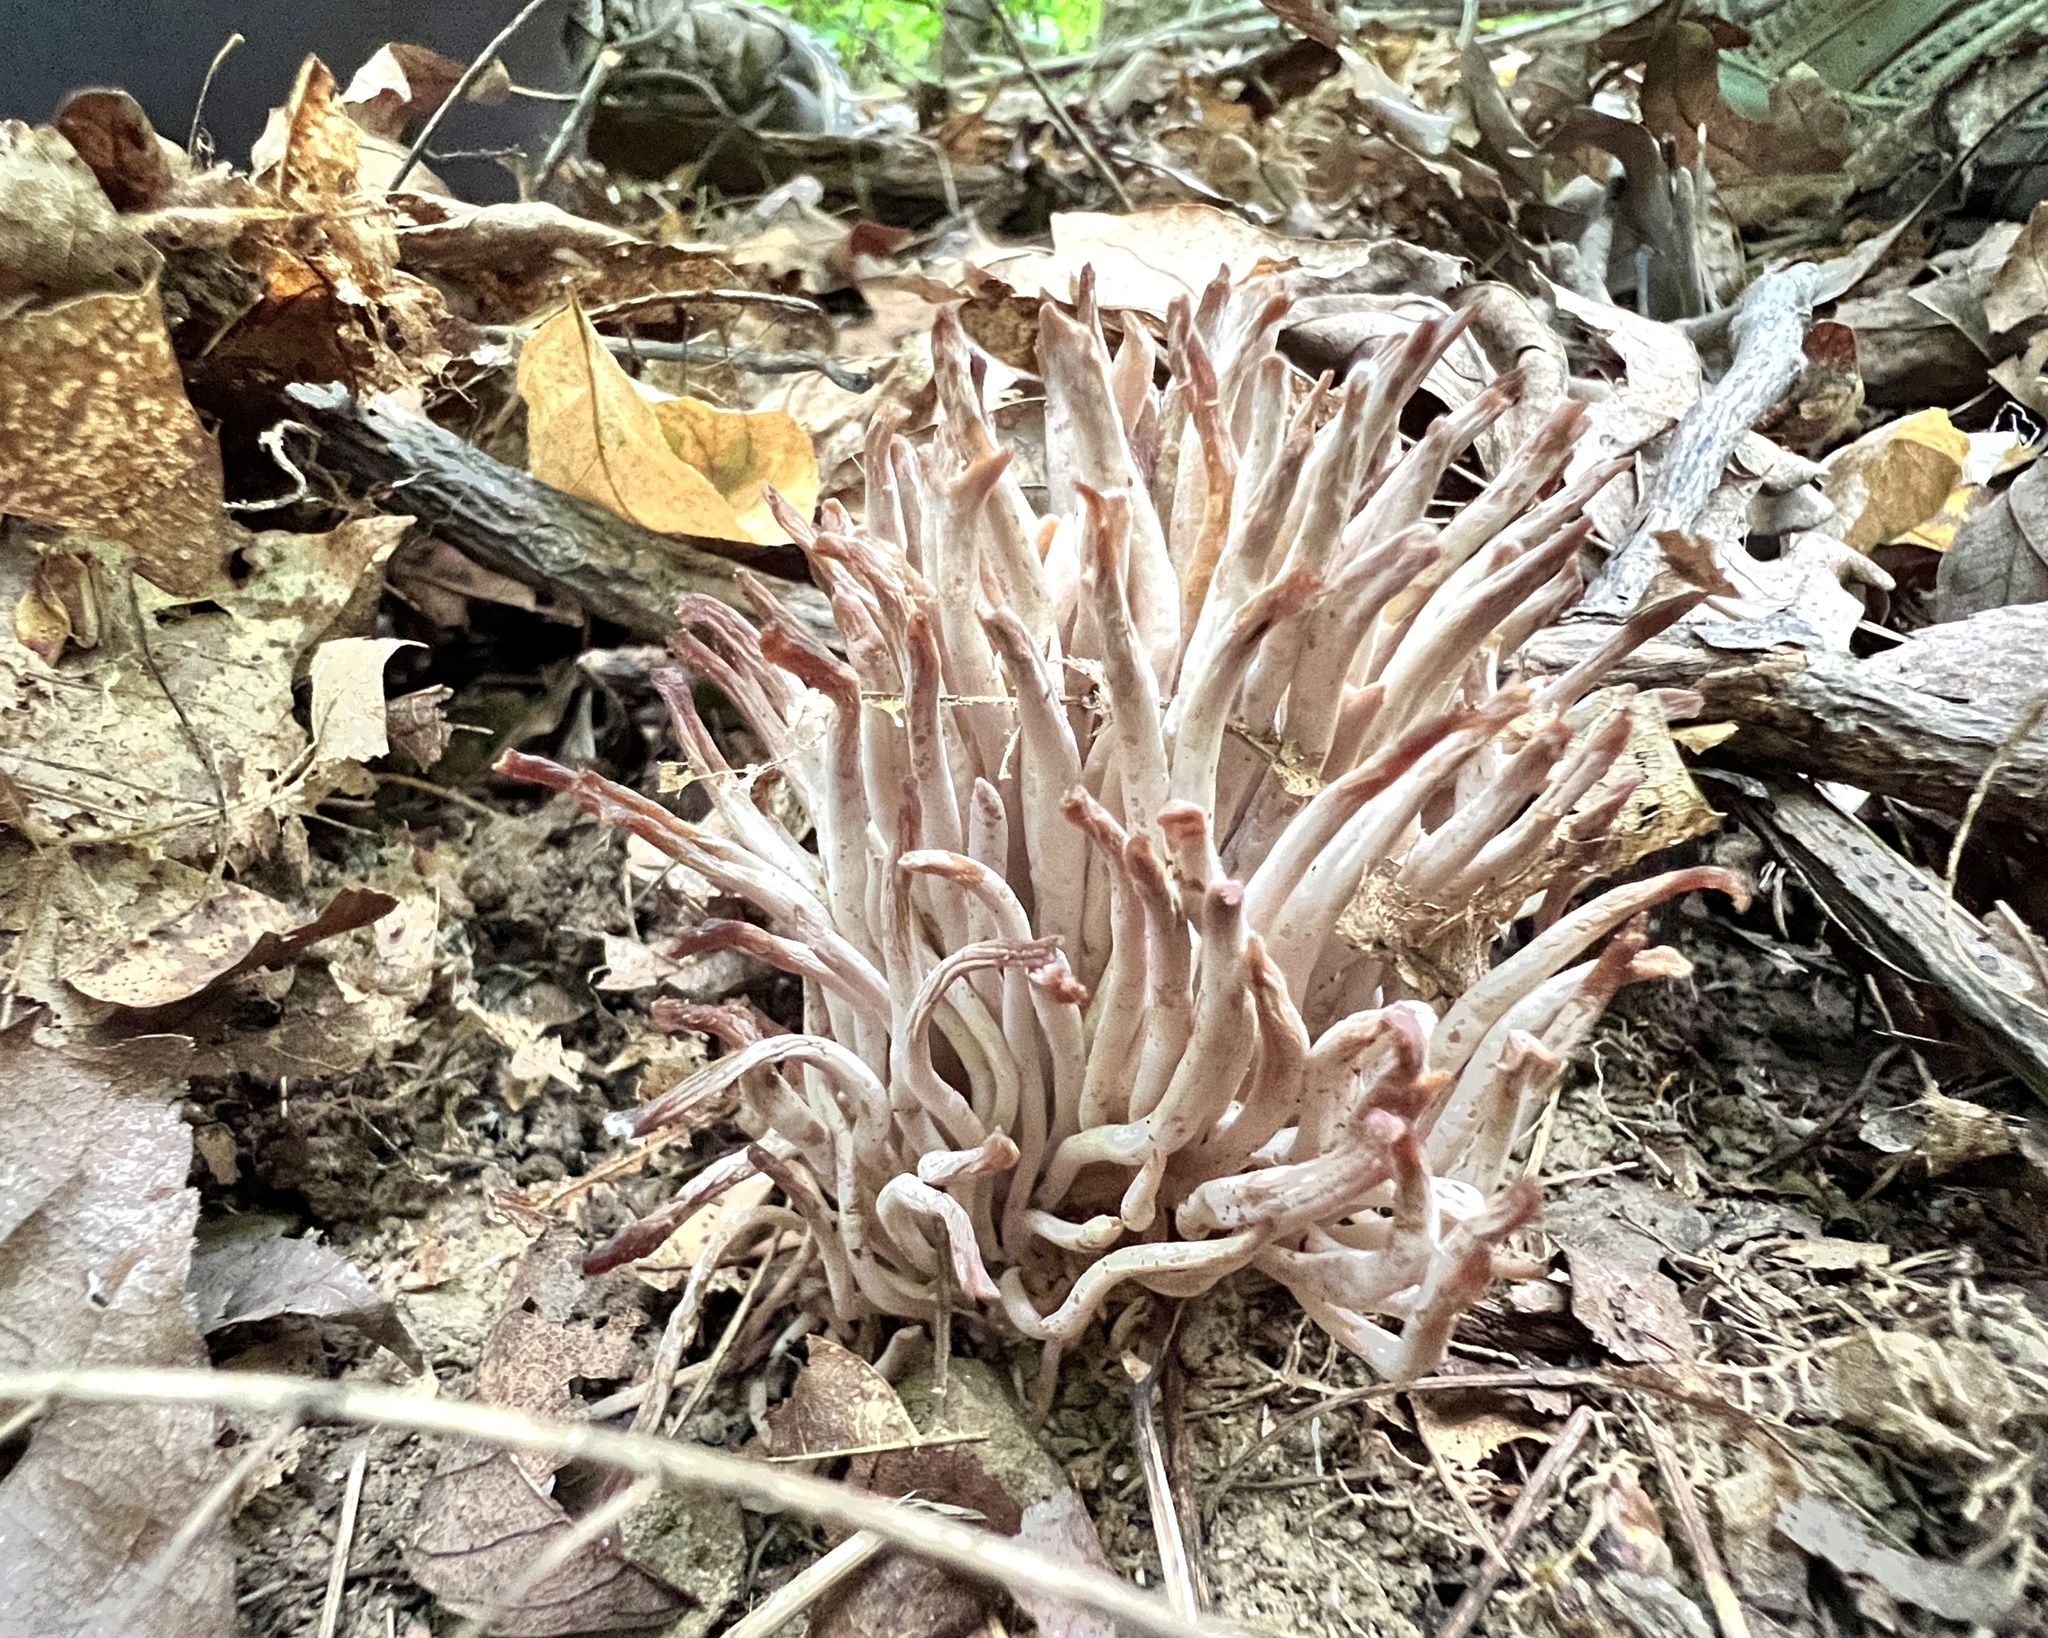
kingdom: Fungi
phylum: Basidiomycota
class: Agaricomycetes
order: Agaricales
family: Clavariaceae
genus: Clavaria
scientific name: Clavaria fragilis
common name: White spindles
